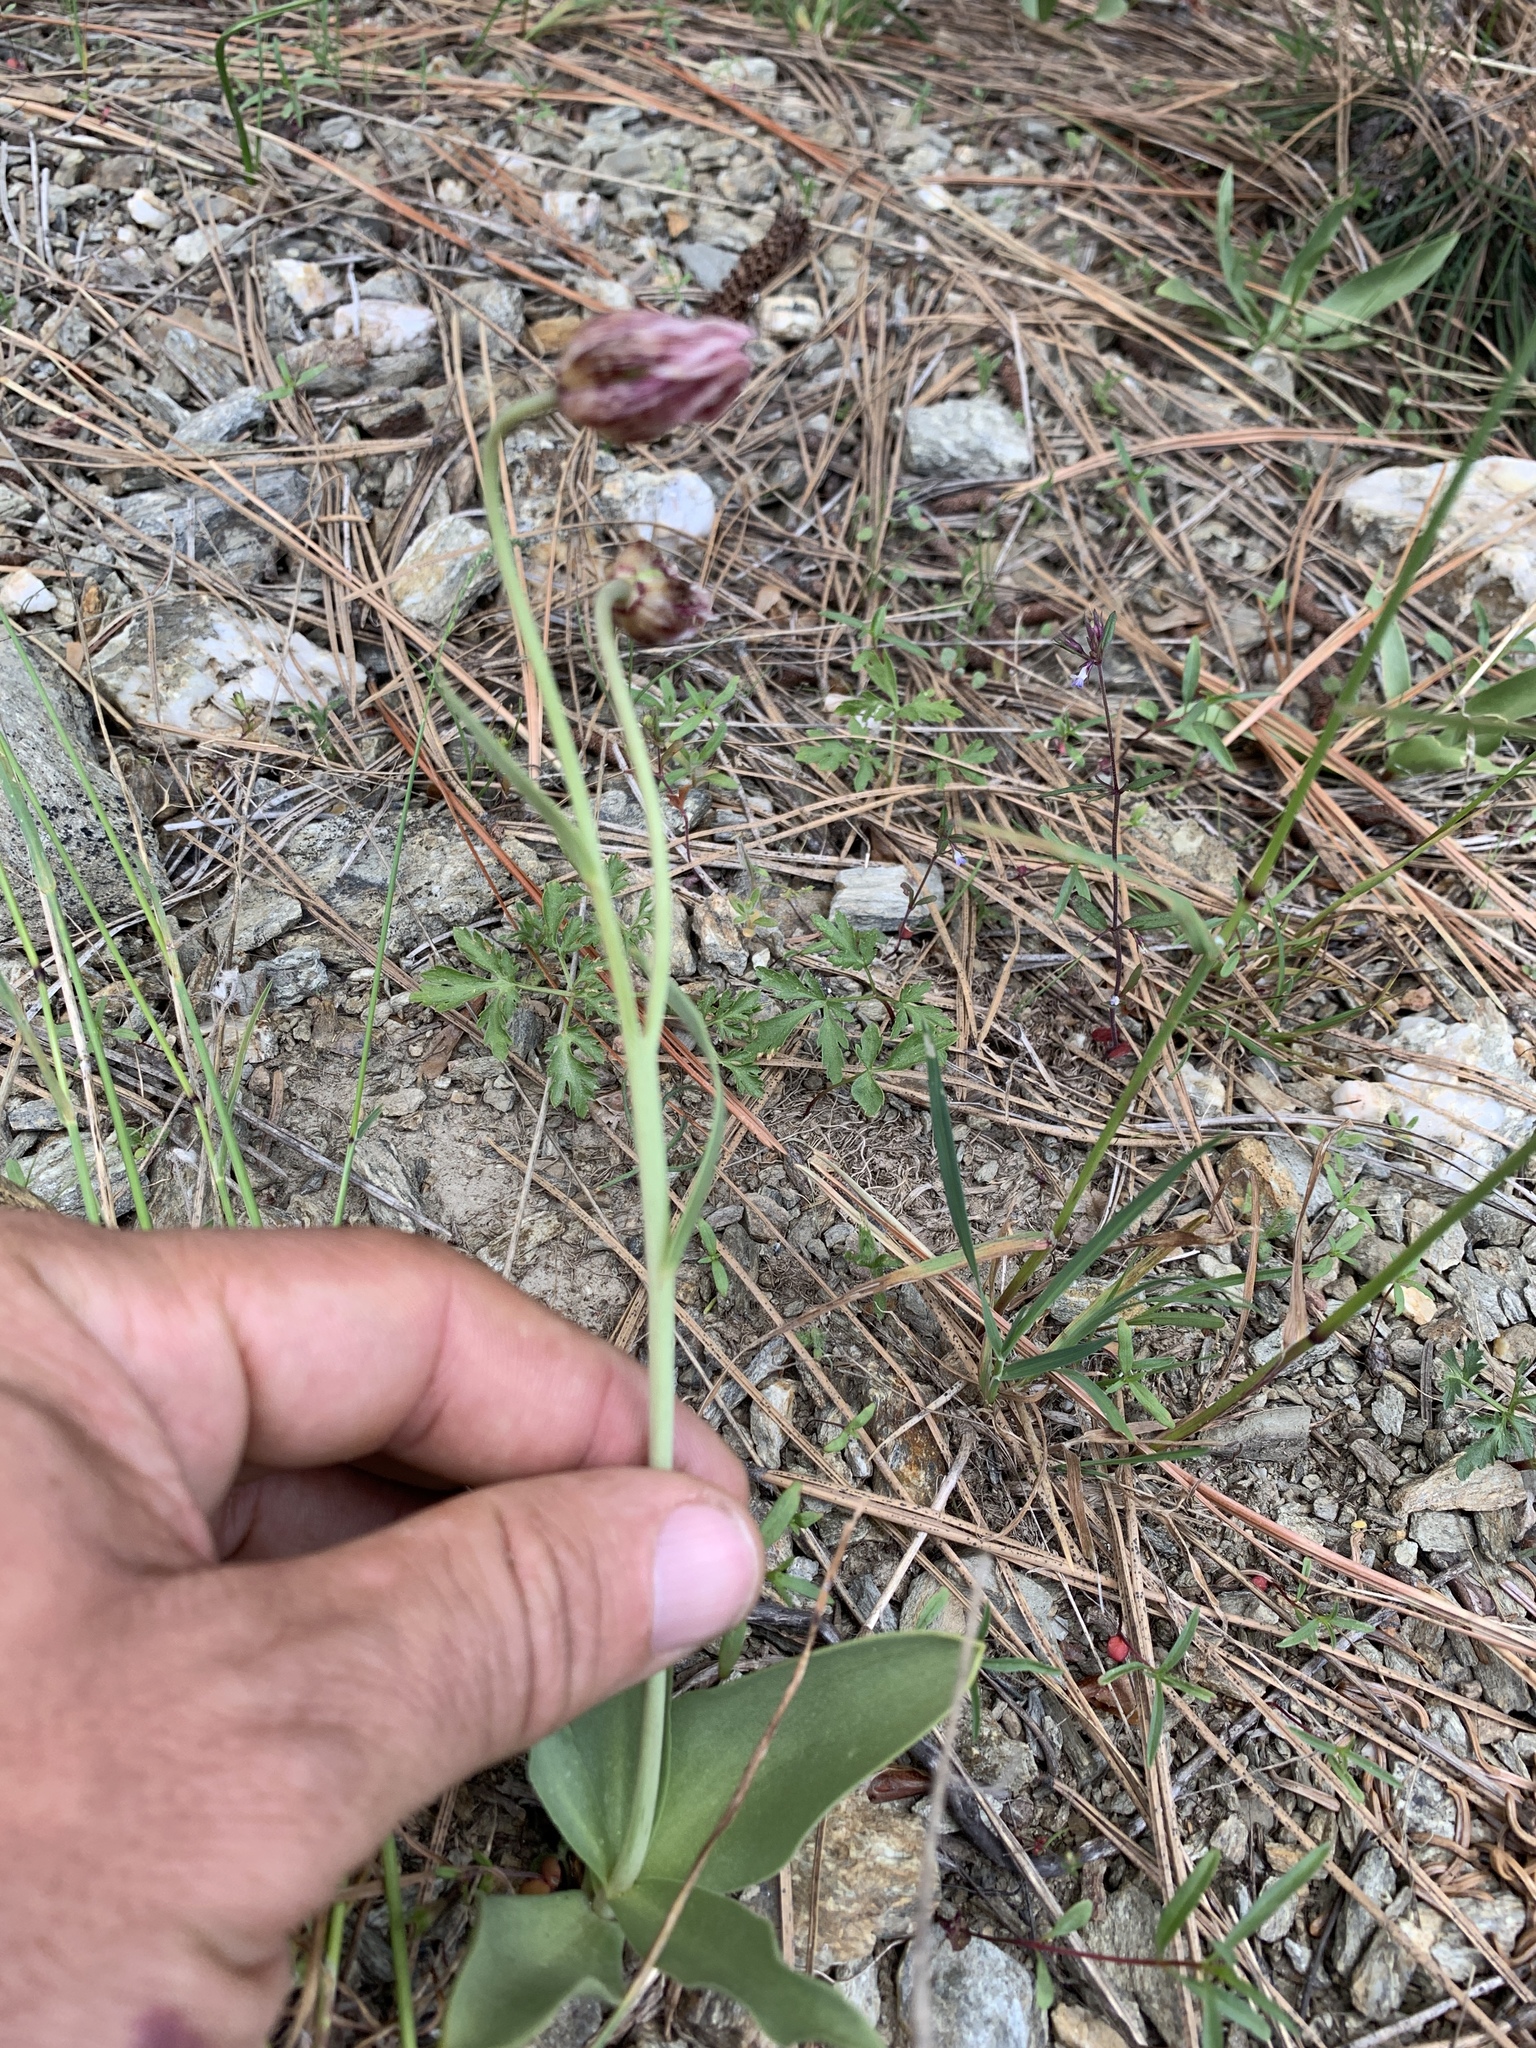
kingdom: Plantae
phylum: Tracheophyta
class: Liliopsida
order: Liliales
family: Liliaceae
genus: Fritillaria
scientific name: Fritillaria purdyi
